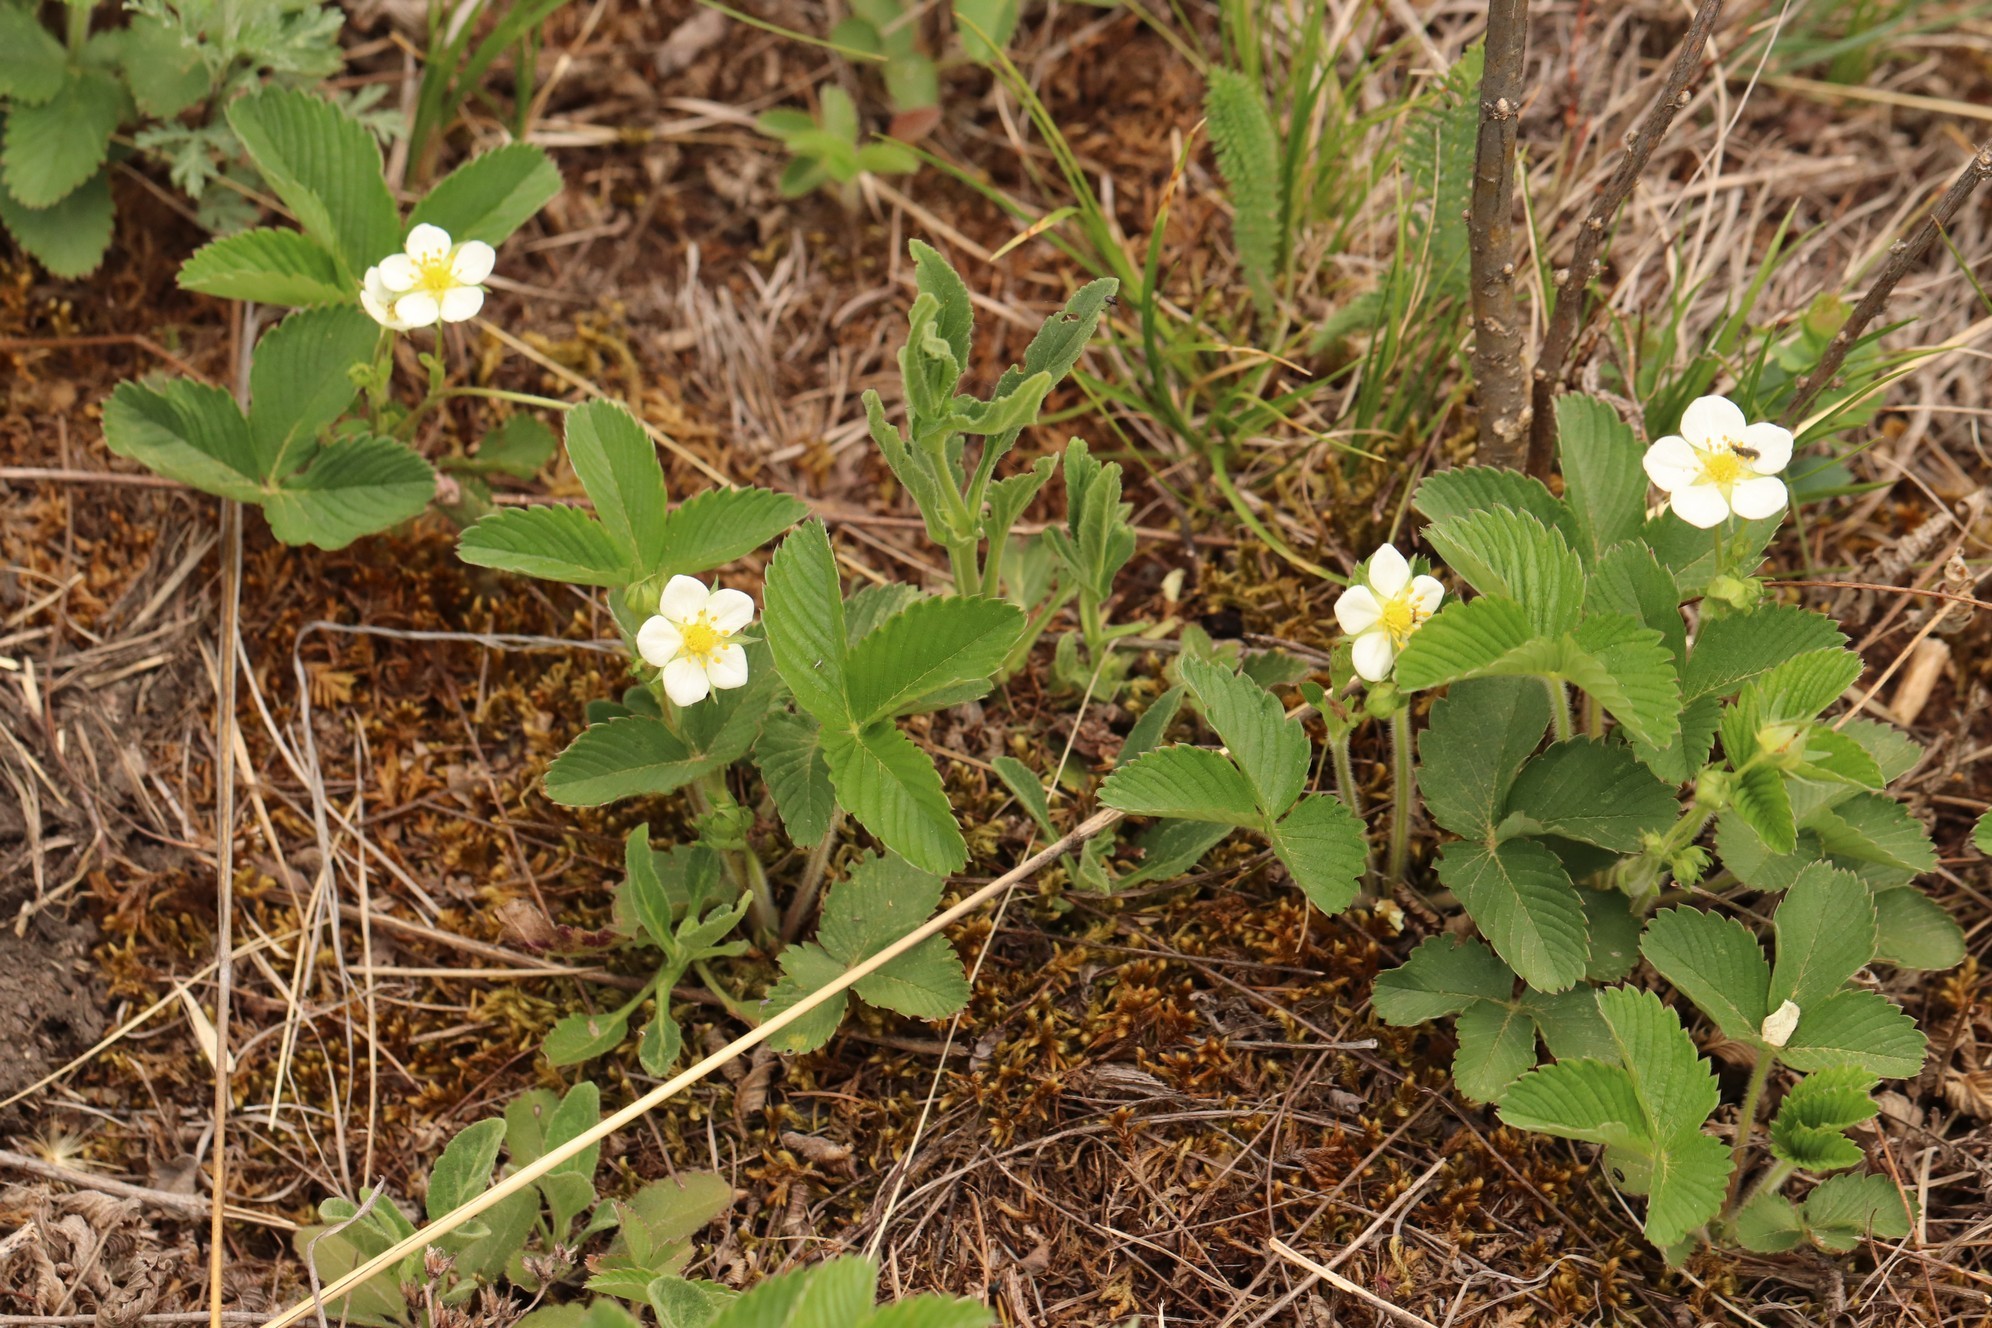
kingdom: Plantae
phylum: Tracheophyta
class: Magnoliopsida
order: Rosales
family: Rosaceae
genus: Fragaria
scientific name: Fragaria viridis
